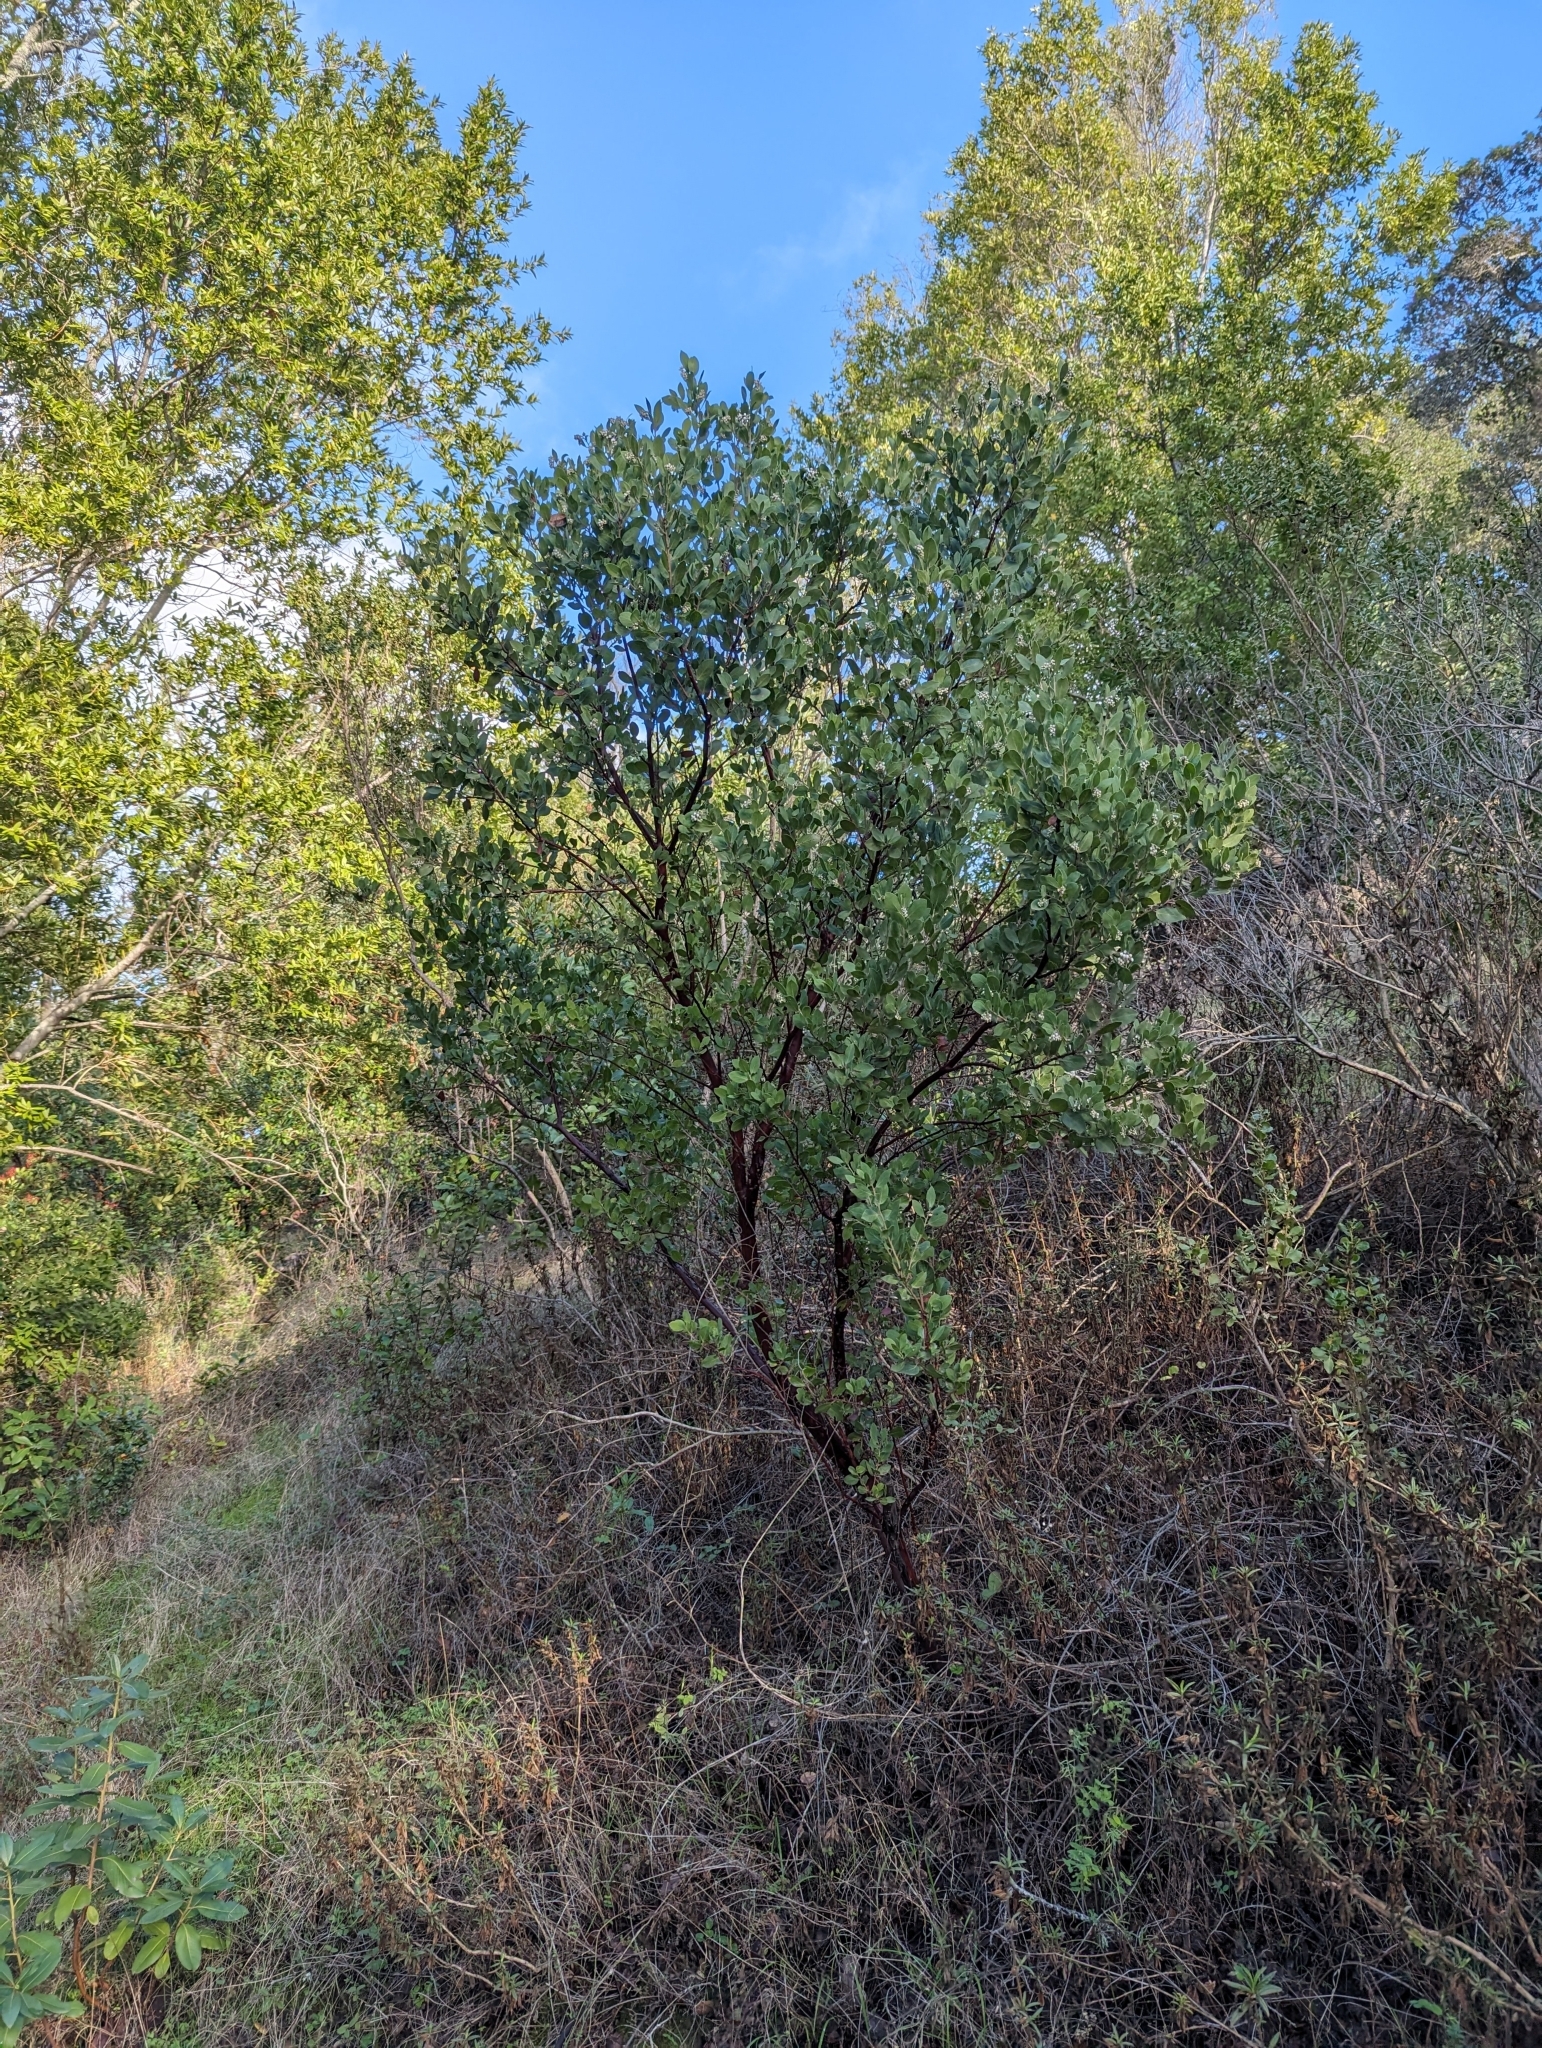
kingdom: Plantae
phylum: Tracheophyta
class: Magnoliopsida
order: Ericales
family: Ericaceae
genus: Arctostaphylos
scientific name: Arctostaphylos manzanita
